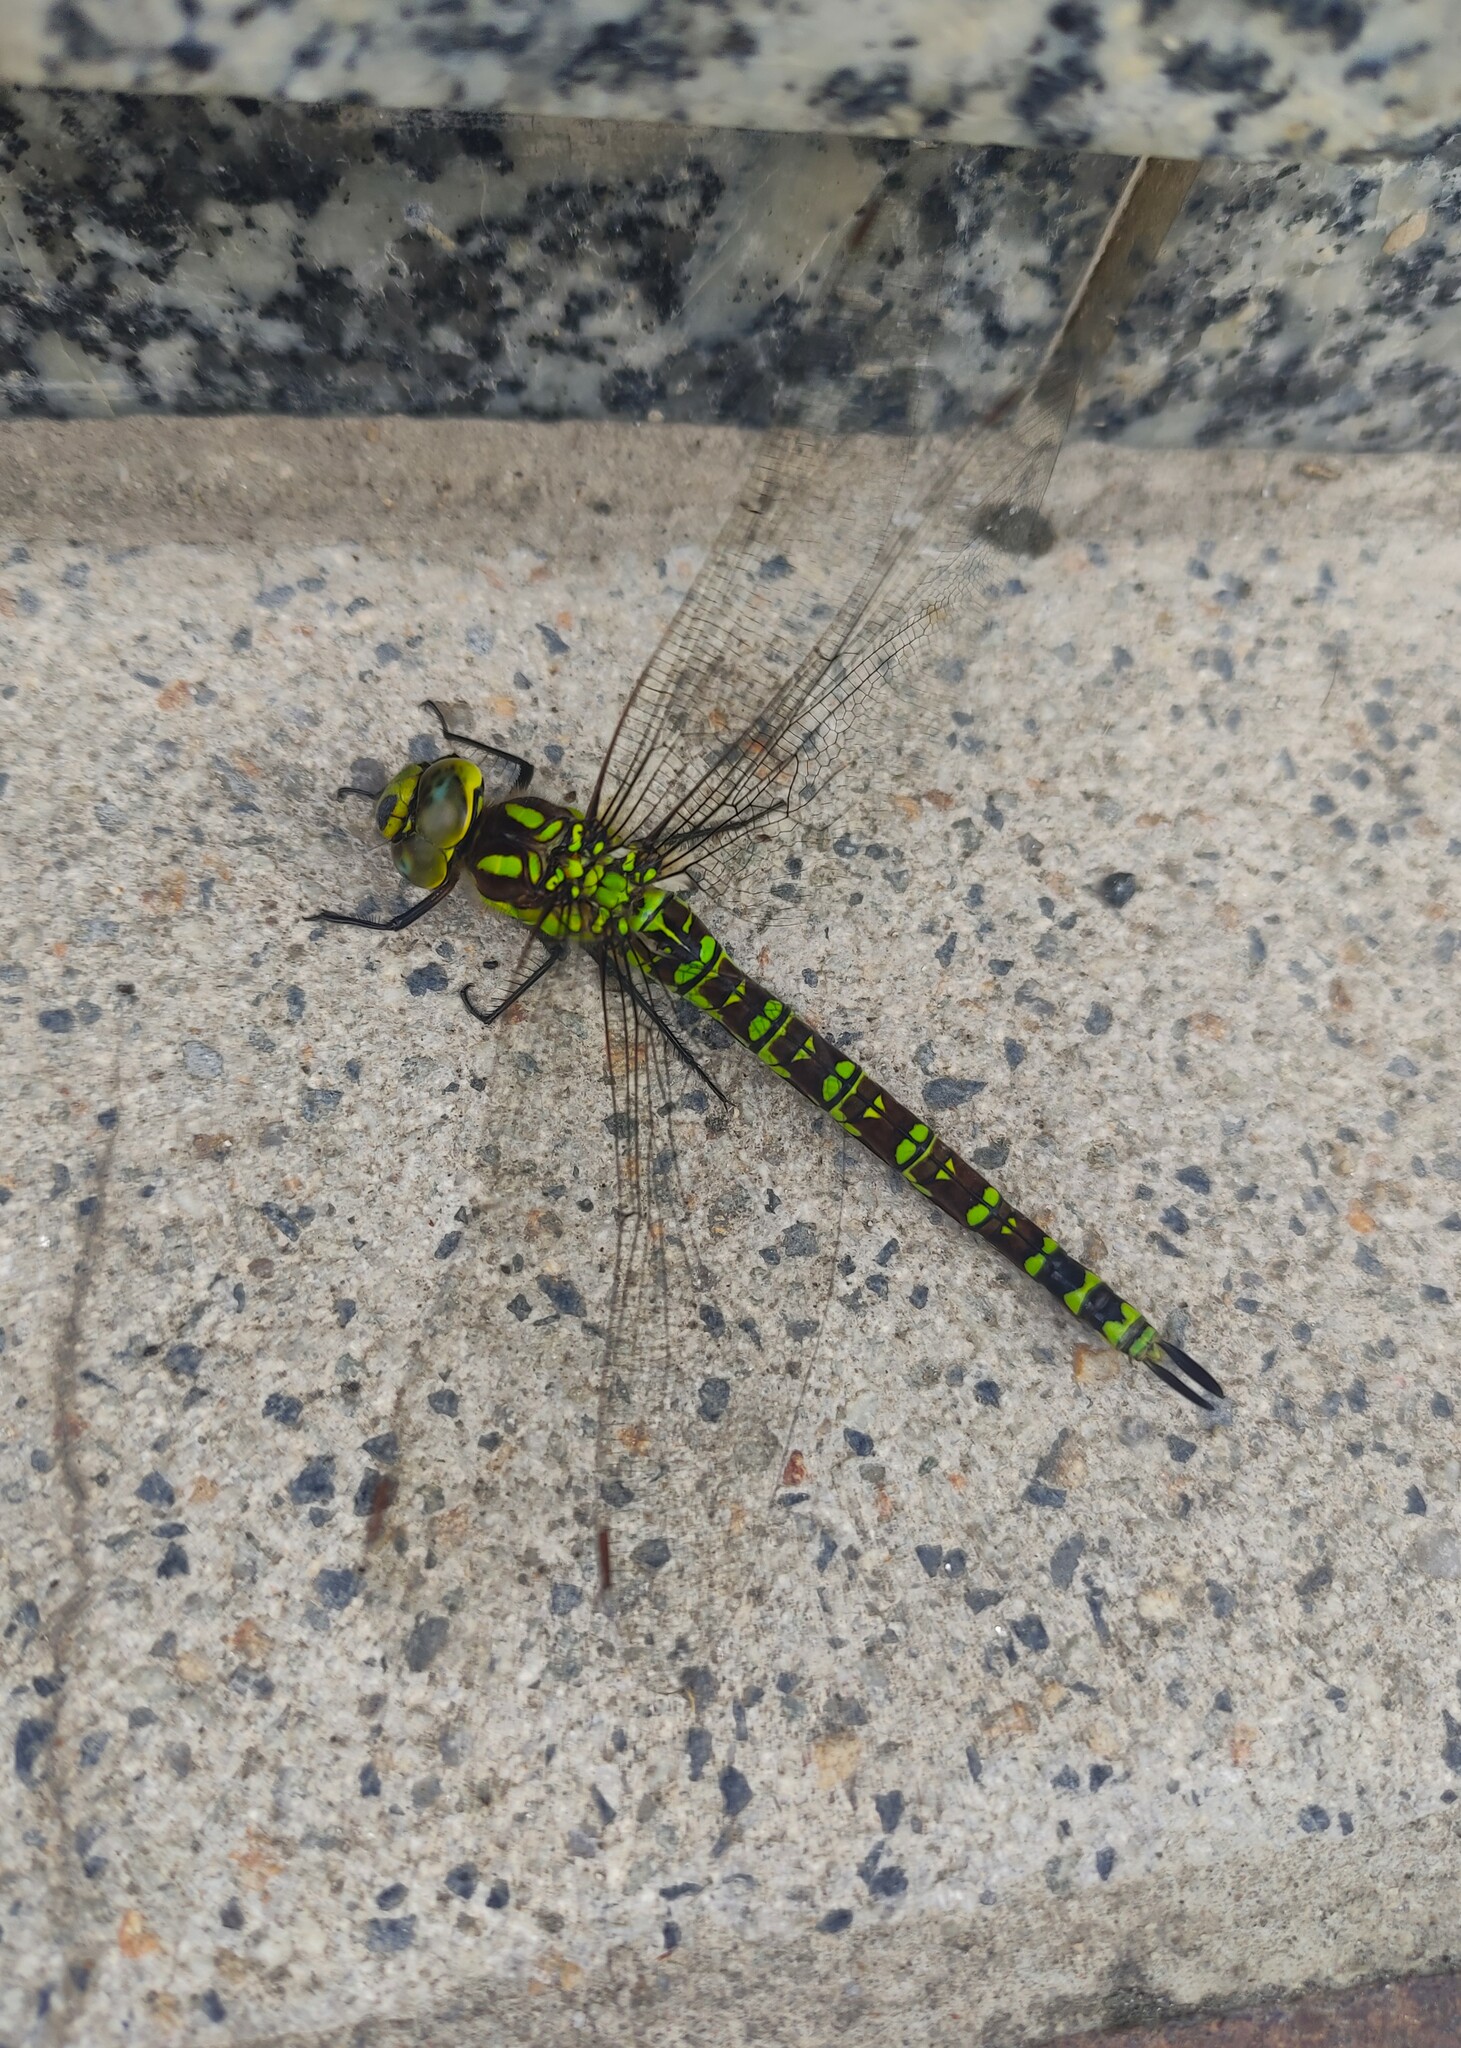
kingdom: Animalia
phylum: Arthropoda
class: Insecta
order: Odonata
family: Aeshnidae
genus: Aeshna
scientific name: Aeshna cyanea
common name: Southern hawker
